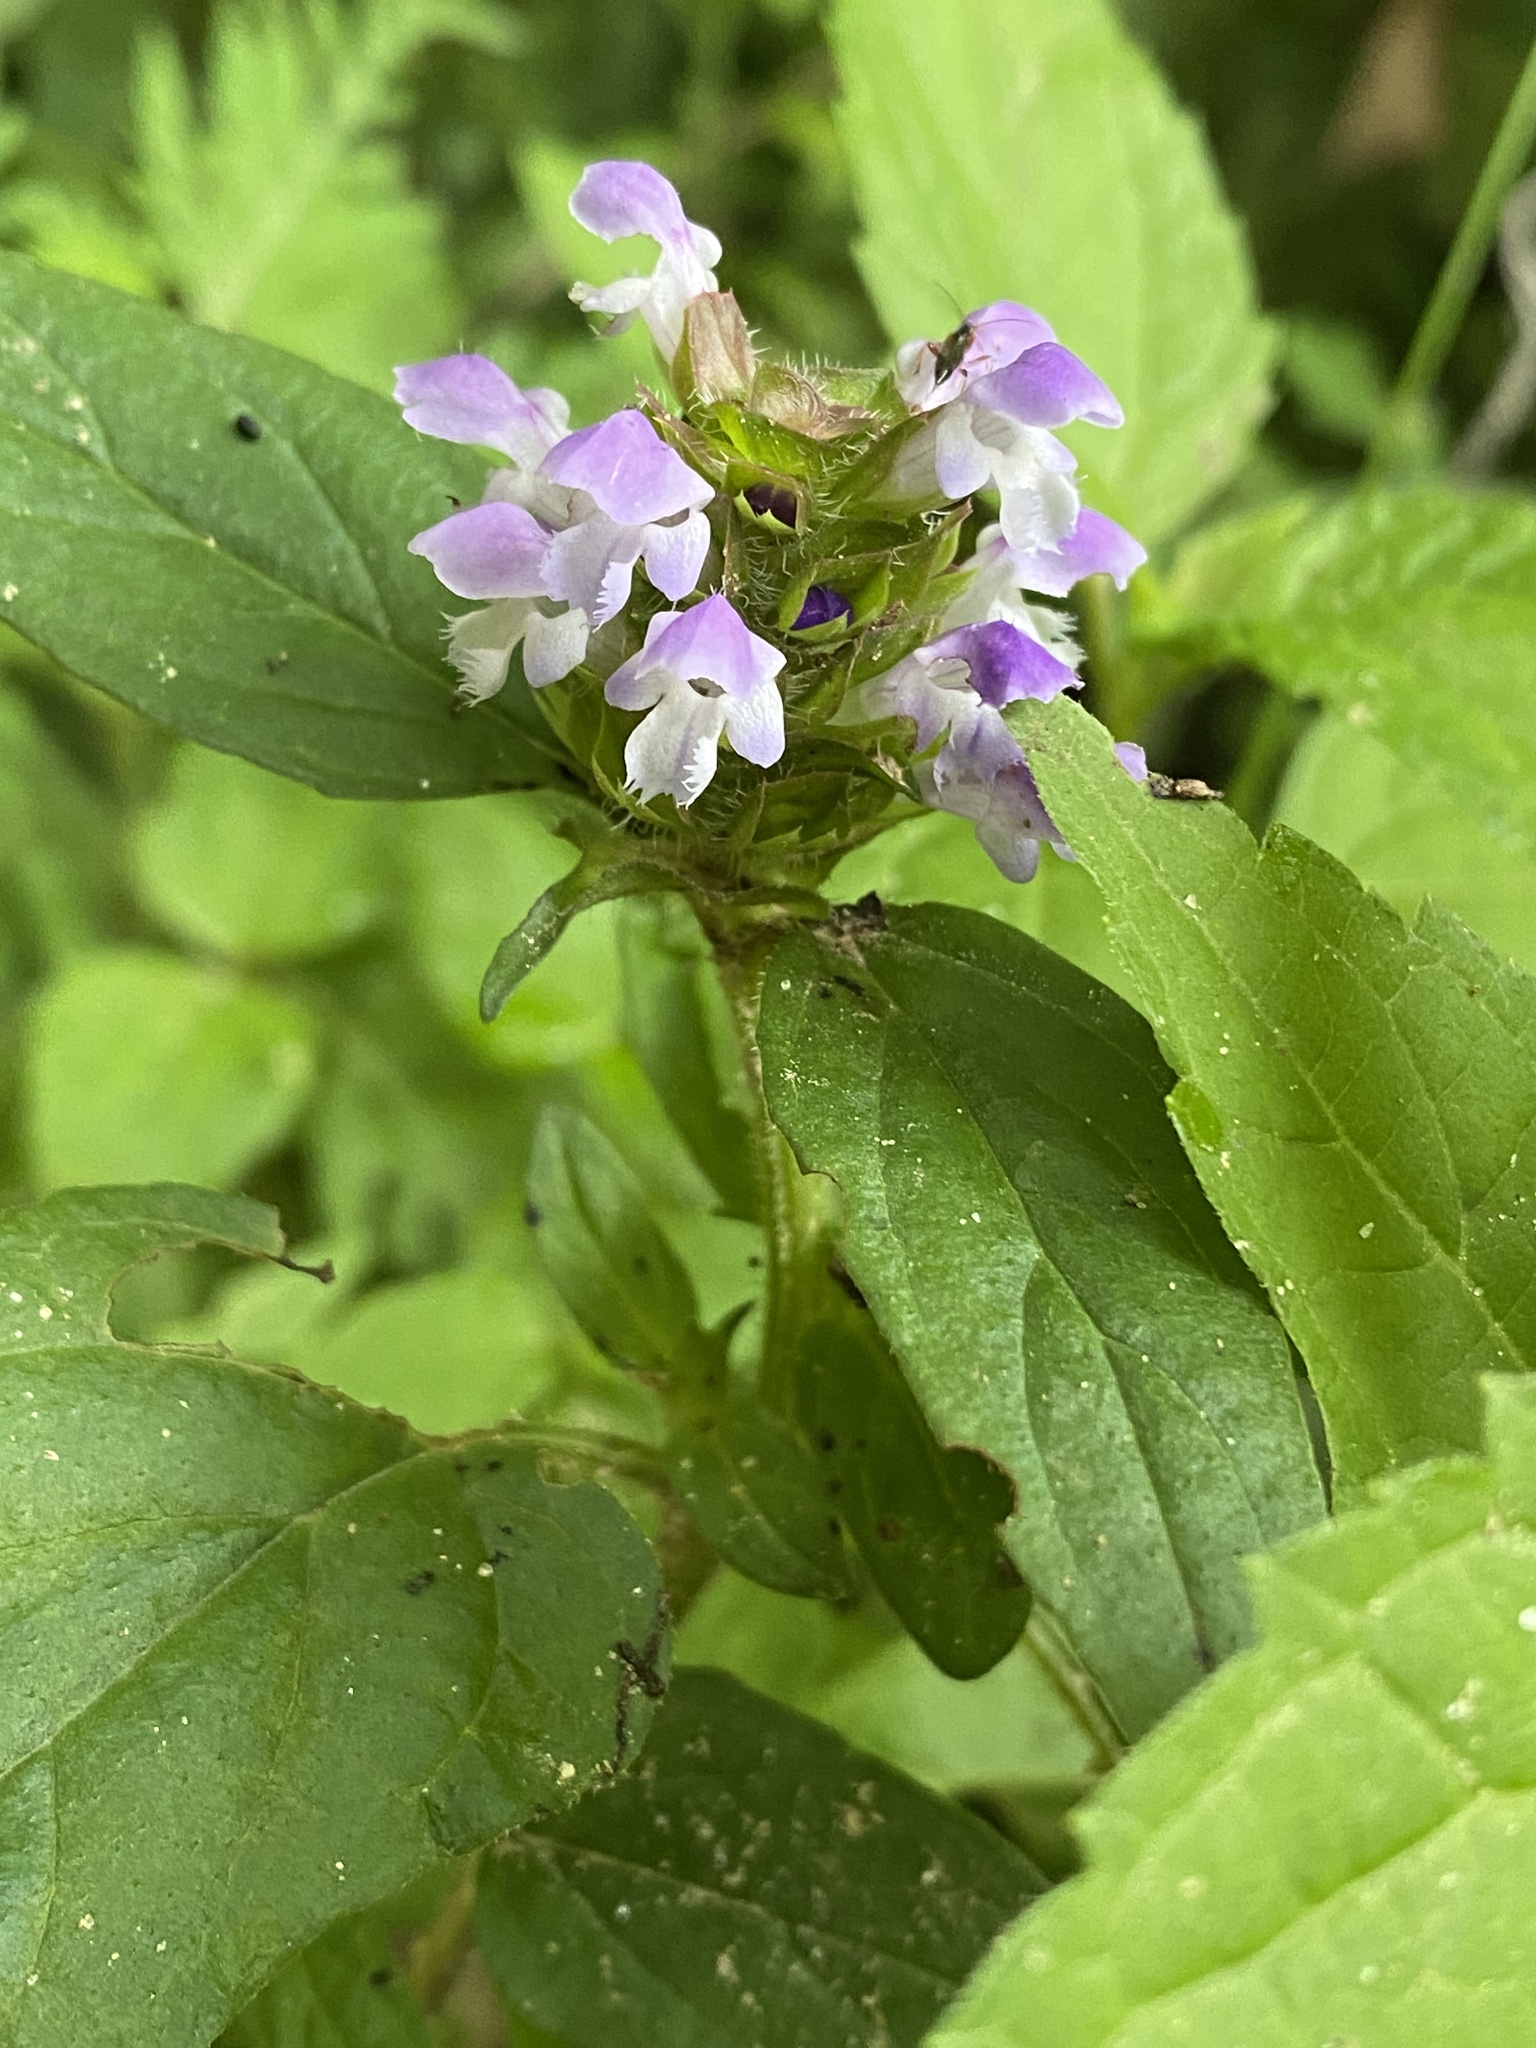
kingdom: Plantae
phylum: Tracheophyta
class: Magnoliopsida
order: Lamiales
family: Lamiaceae
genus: Prunella
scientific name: Prunella vulgaris
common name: Heal-all
